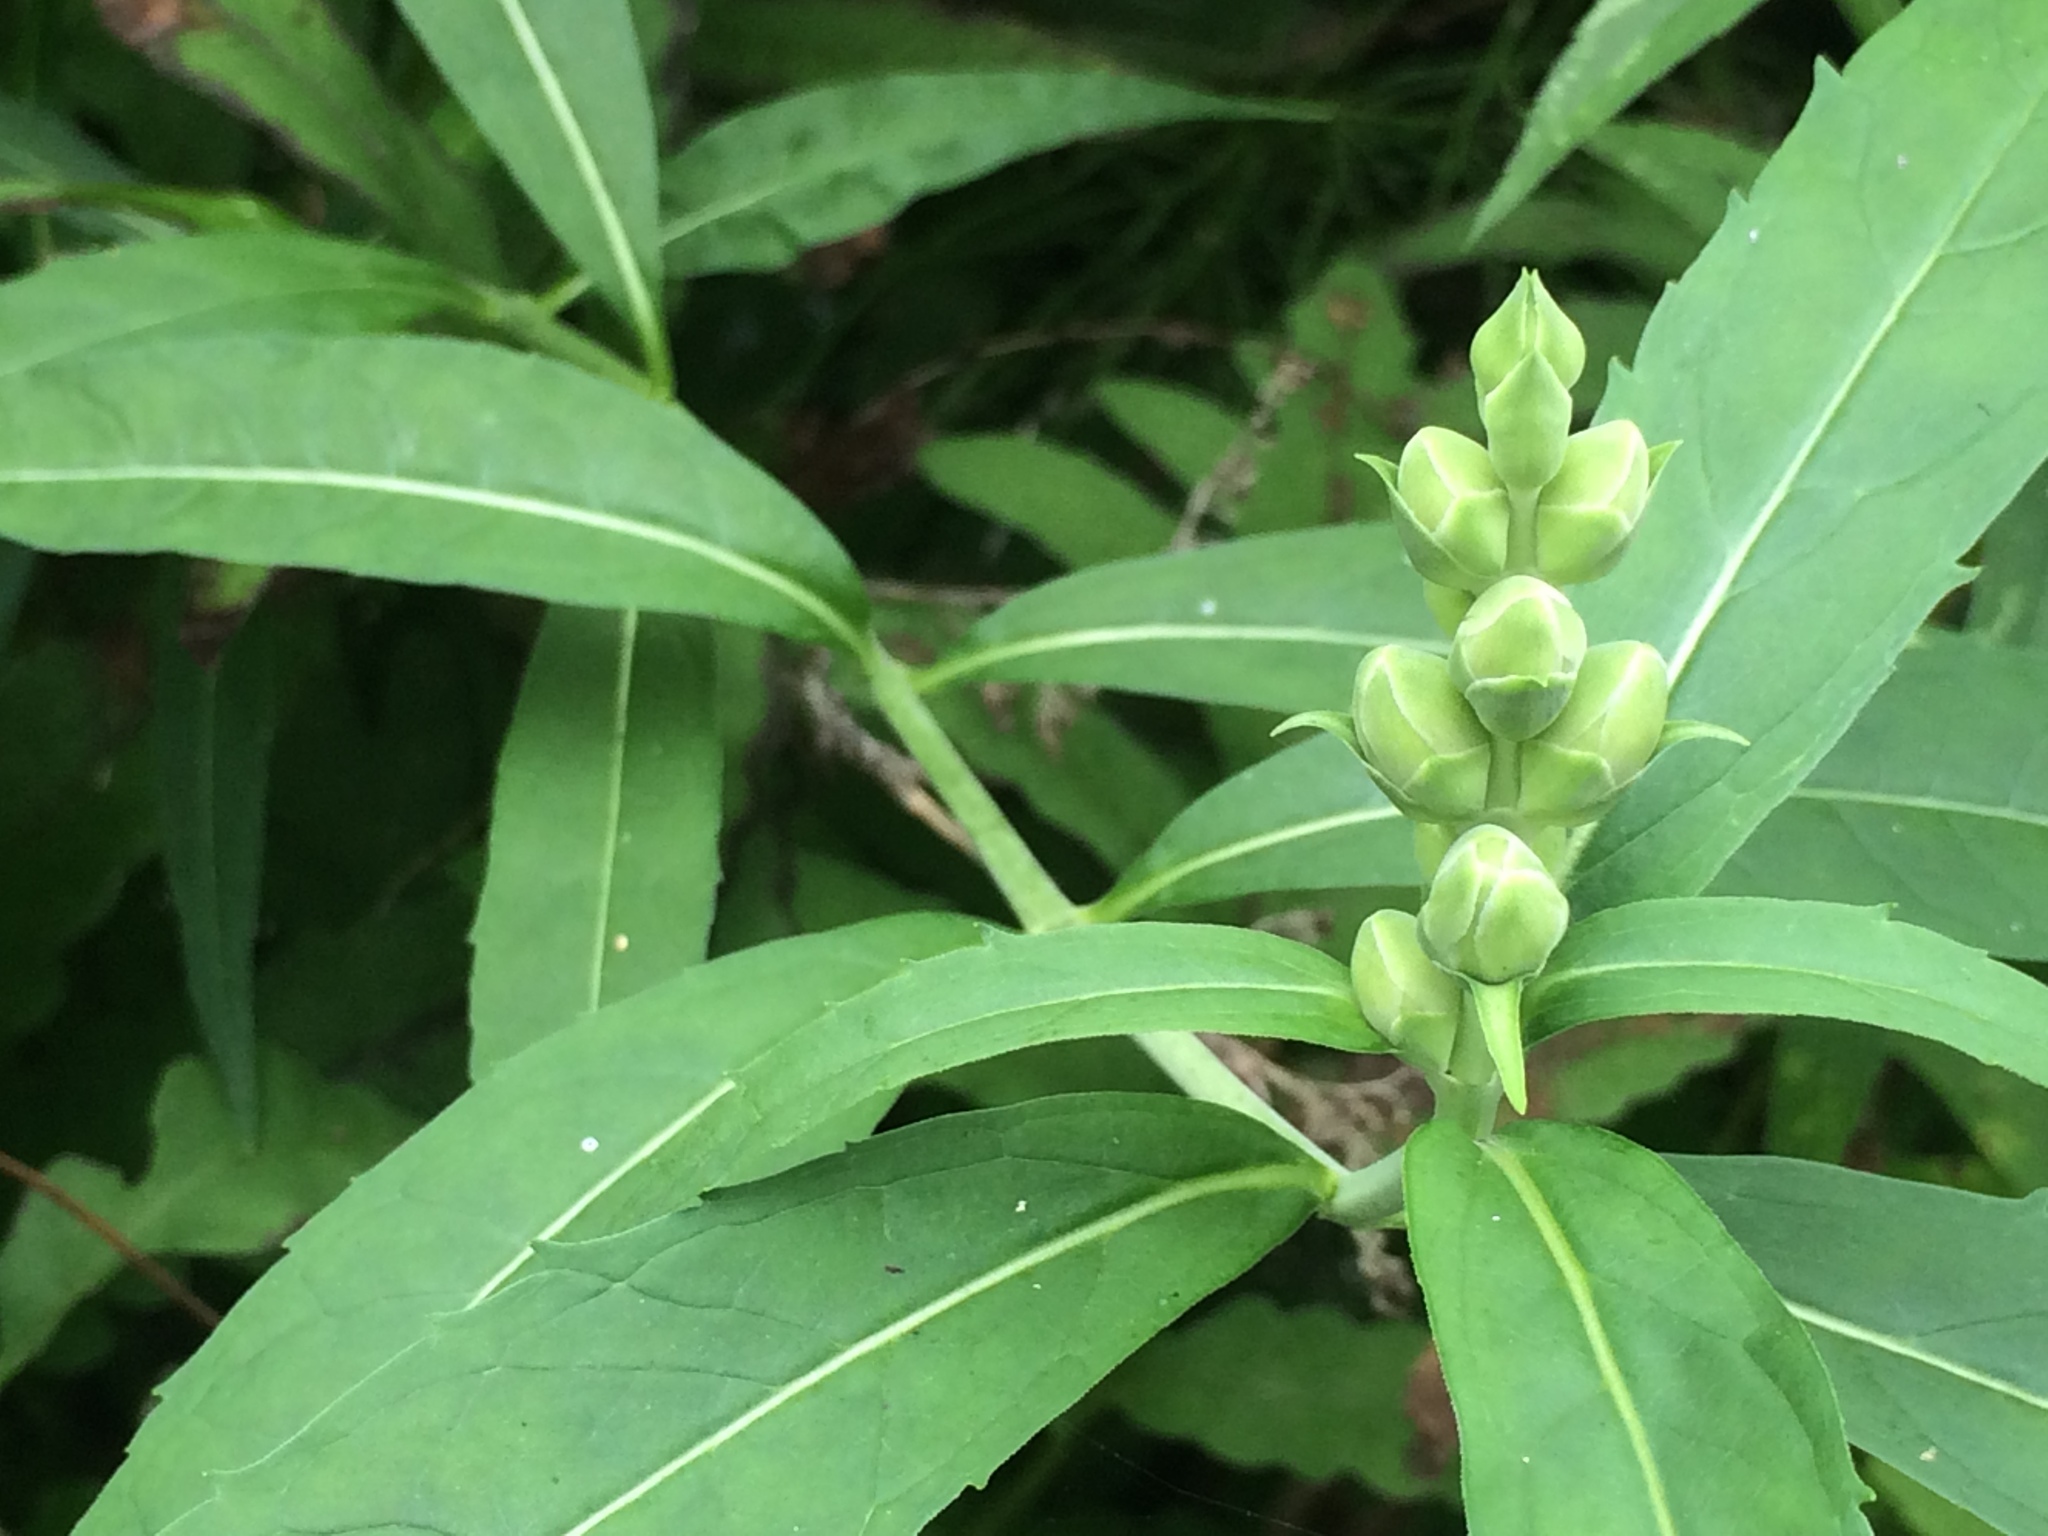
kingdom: Plantae
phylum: Tracheophyta
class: Magnoliopsida
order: Lamiales
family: Plantaginaceae
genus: Chelone
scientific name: Chelone glabra
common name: Snakehead
